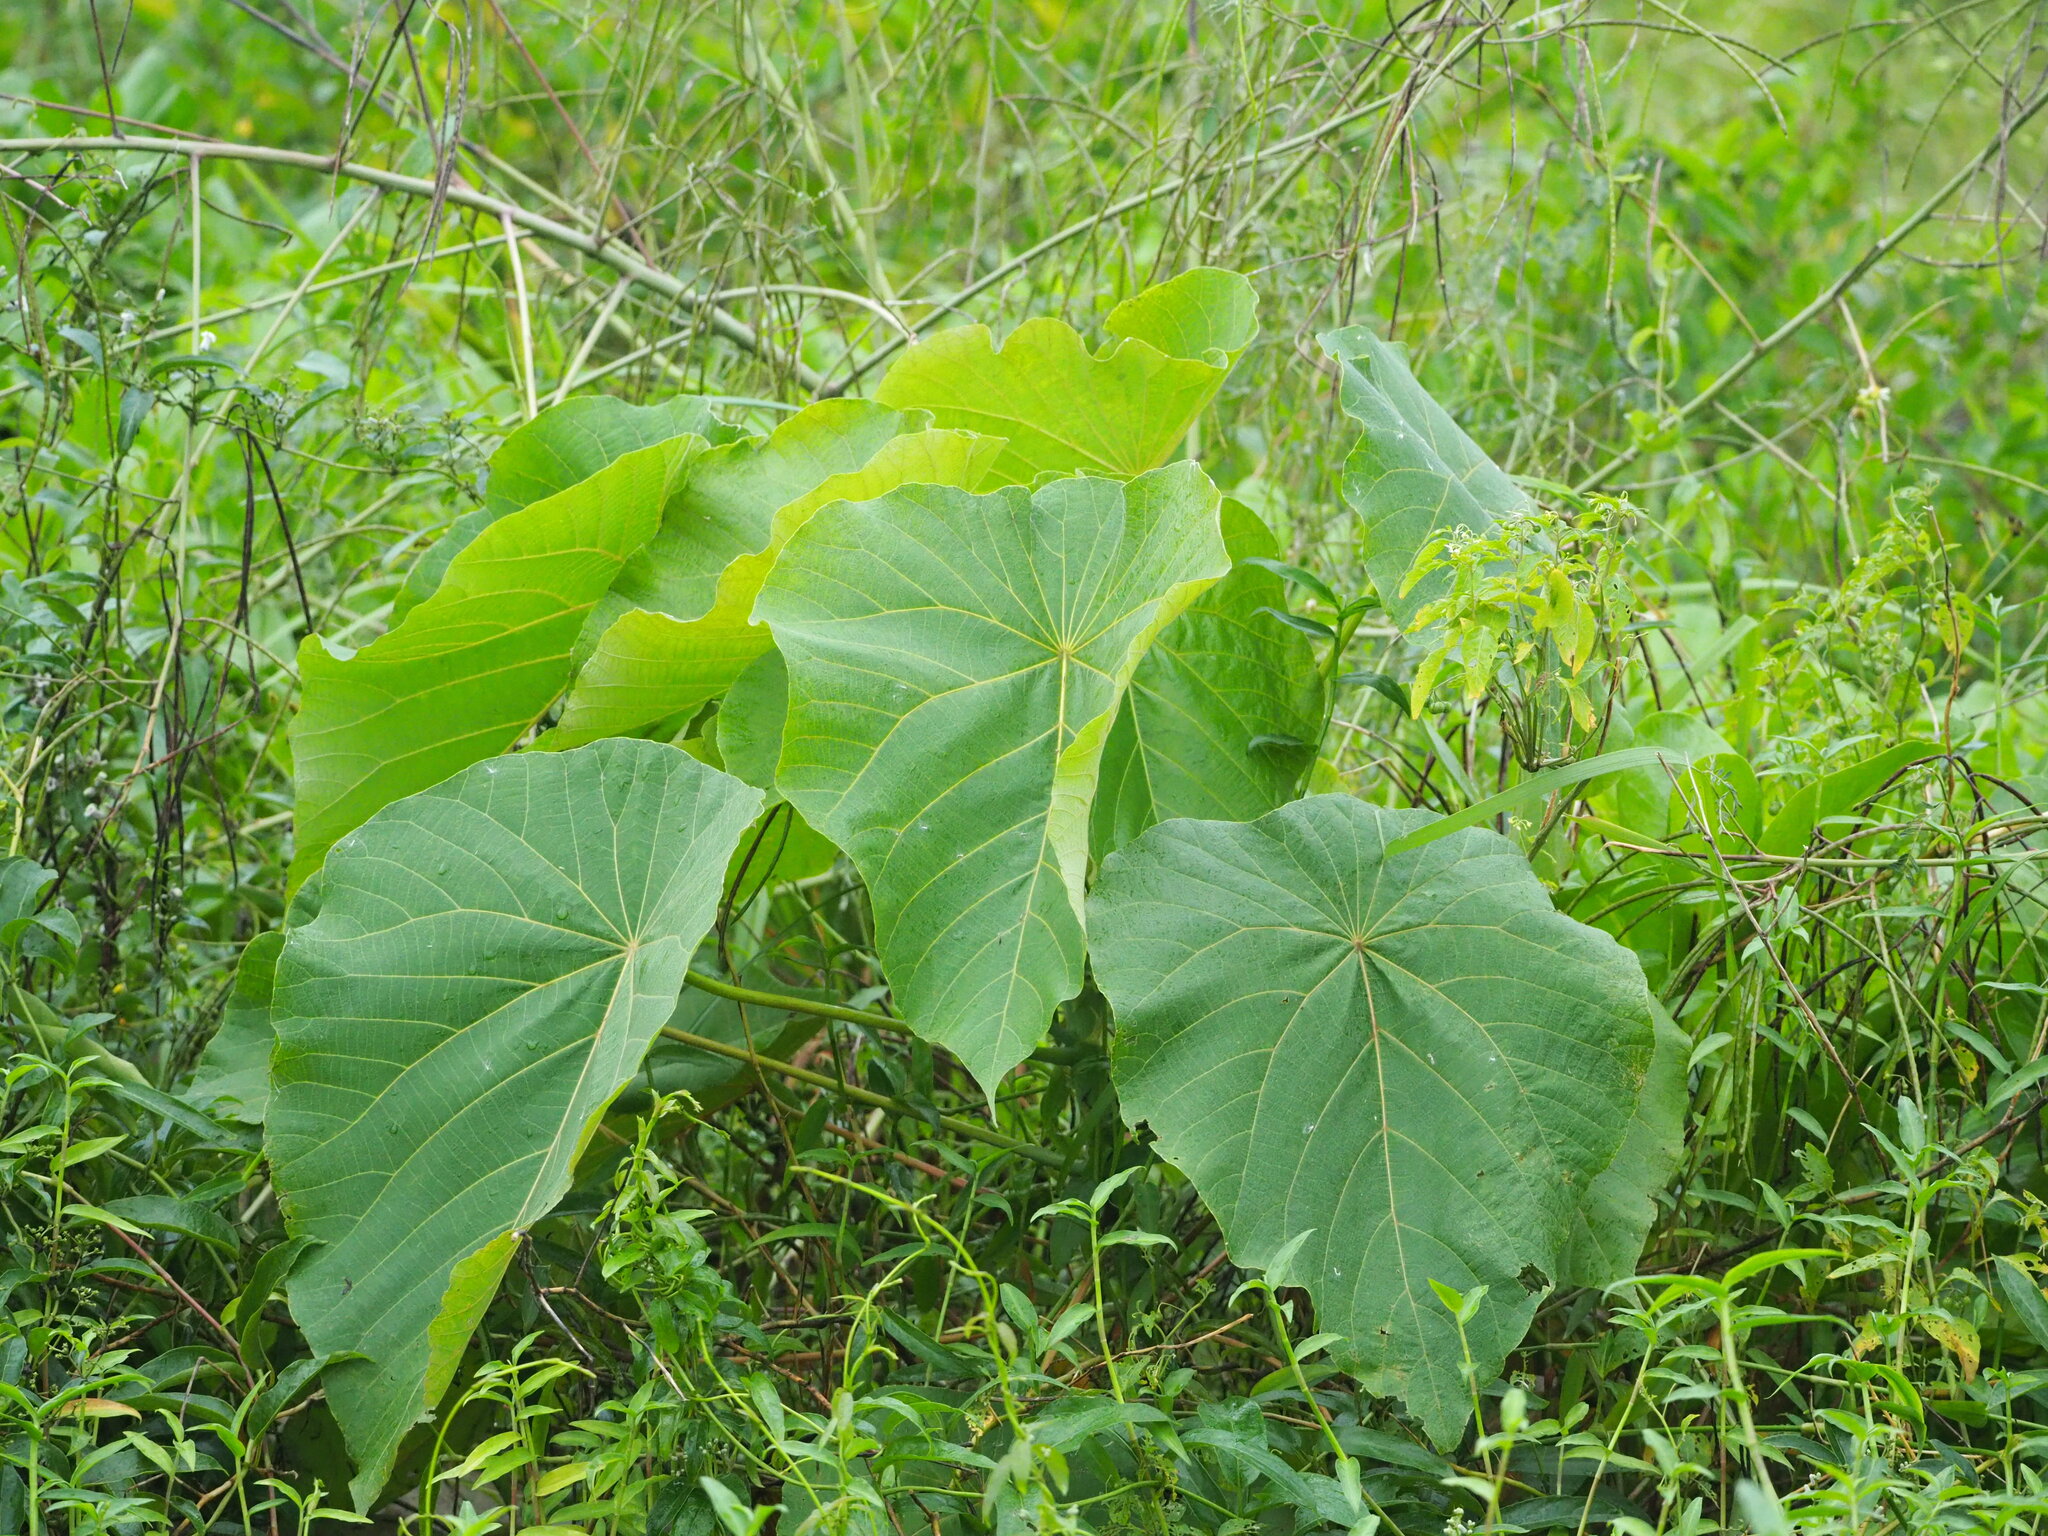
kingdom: Plantae
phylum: Tracheophyta
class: Magnoliopsida
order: Malpighiales
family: Euphorbiaceae
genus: Macaranga
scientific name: Macaranga tanarius
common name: Parasol leaf tree
